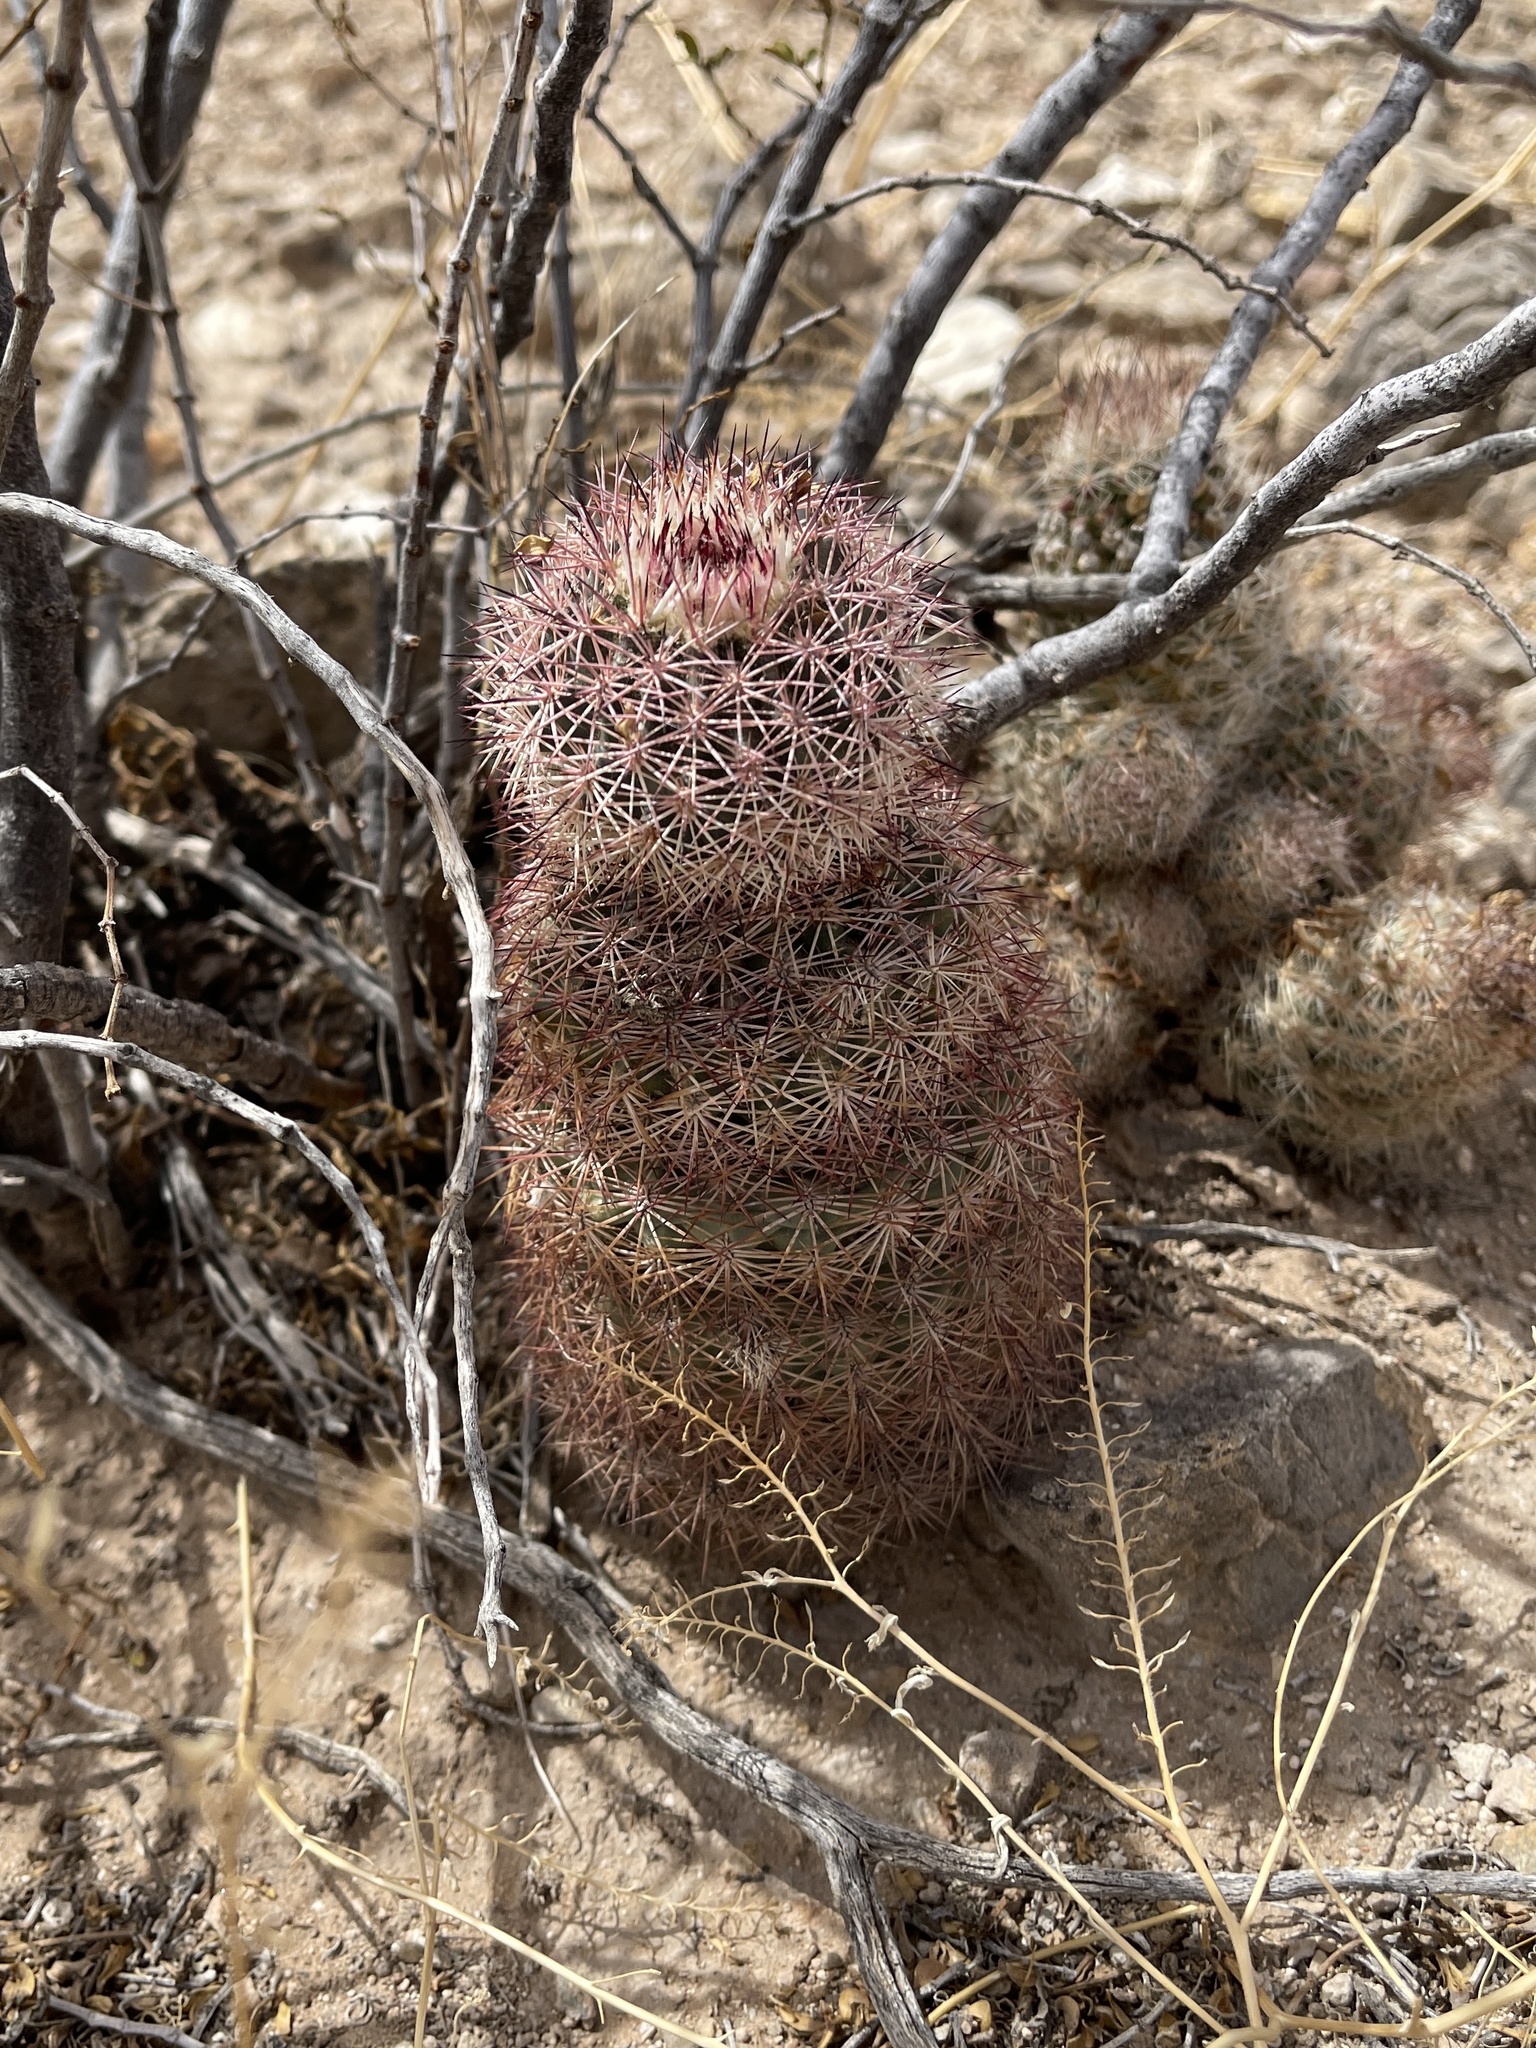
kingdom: Plantae
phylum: Tracheophyta
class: Magnoliopsida
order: Caryophyllales
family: Cactaceae
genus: Echinocereus
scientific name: Echinocereus dasyacanthus
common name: Spiny hedgehog cactus
